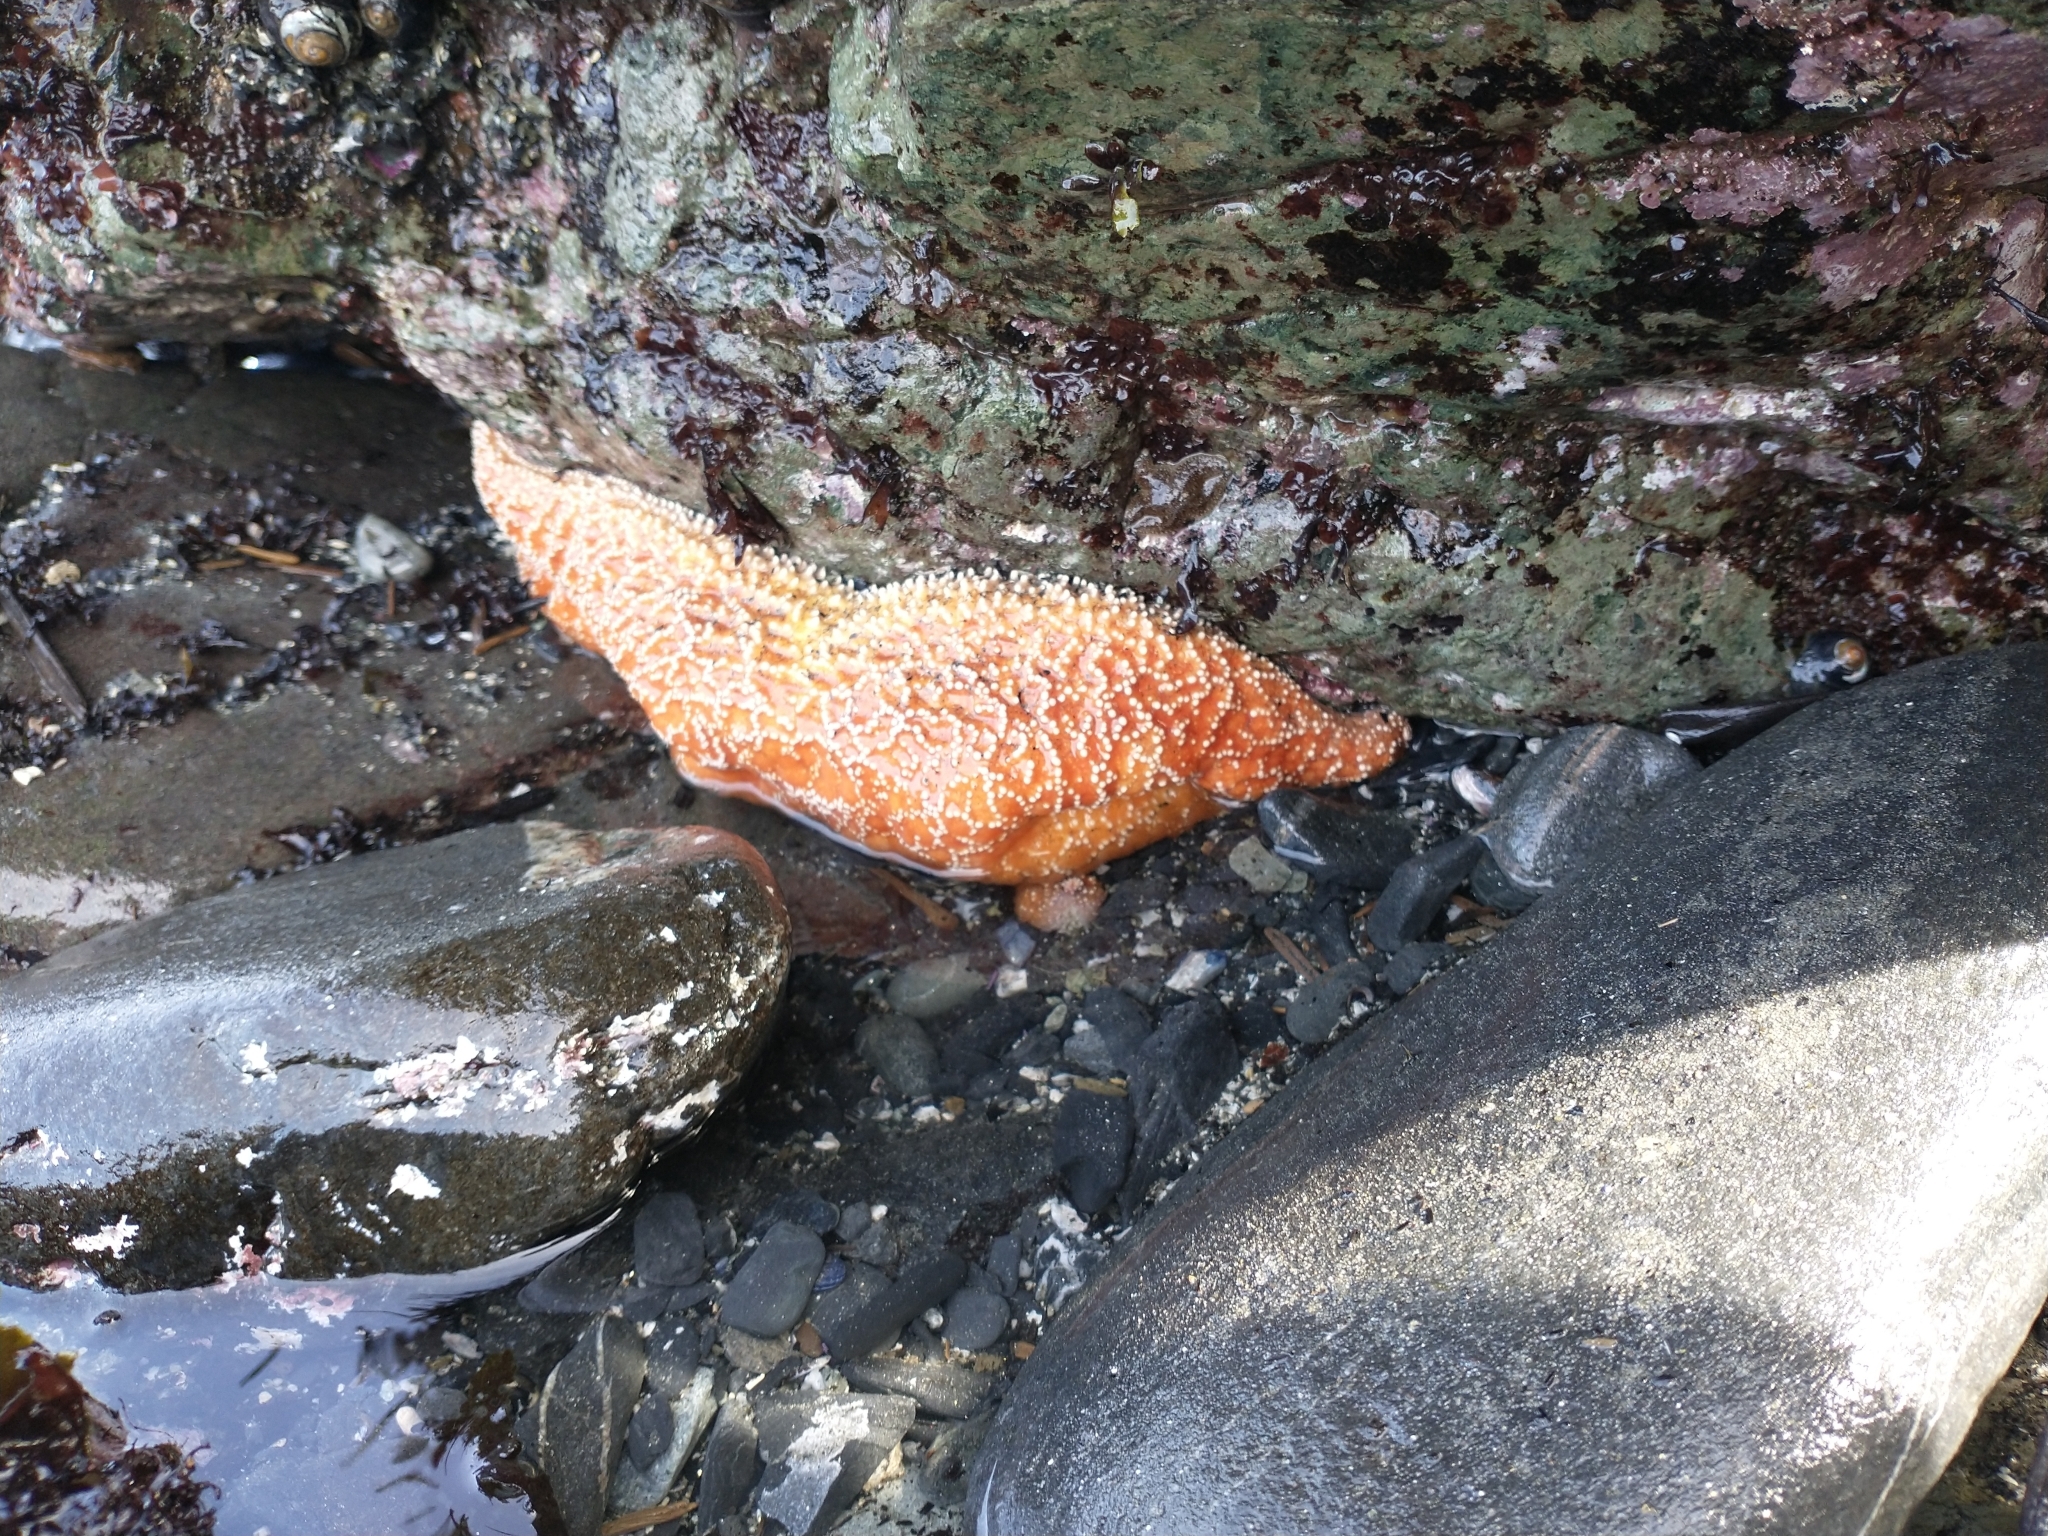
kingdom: Animalia
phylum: Echinodermata
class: Asteroidea
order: Forcipulatida
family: Asteriidae
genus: Pisaster
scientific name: Pisaster ochraceus
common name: Ochre stars
